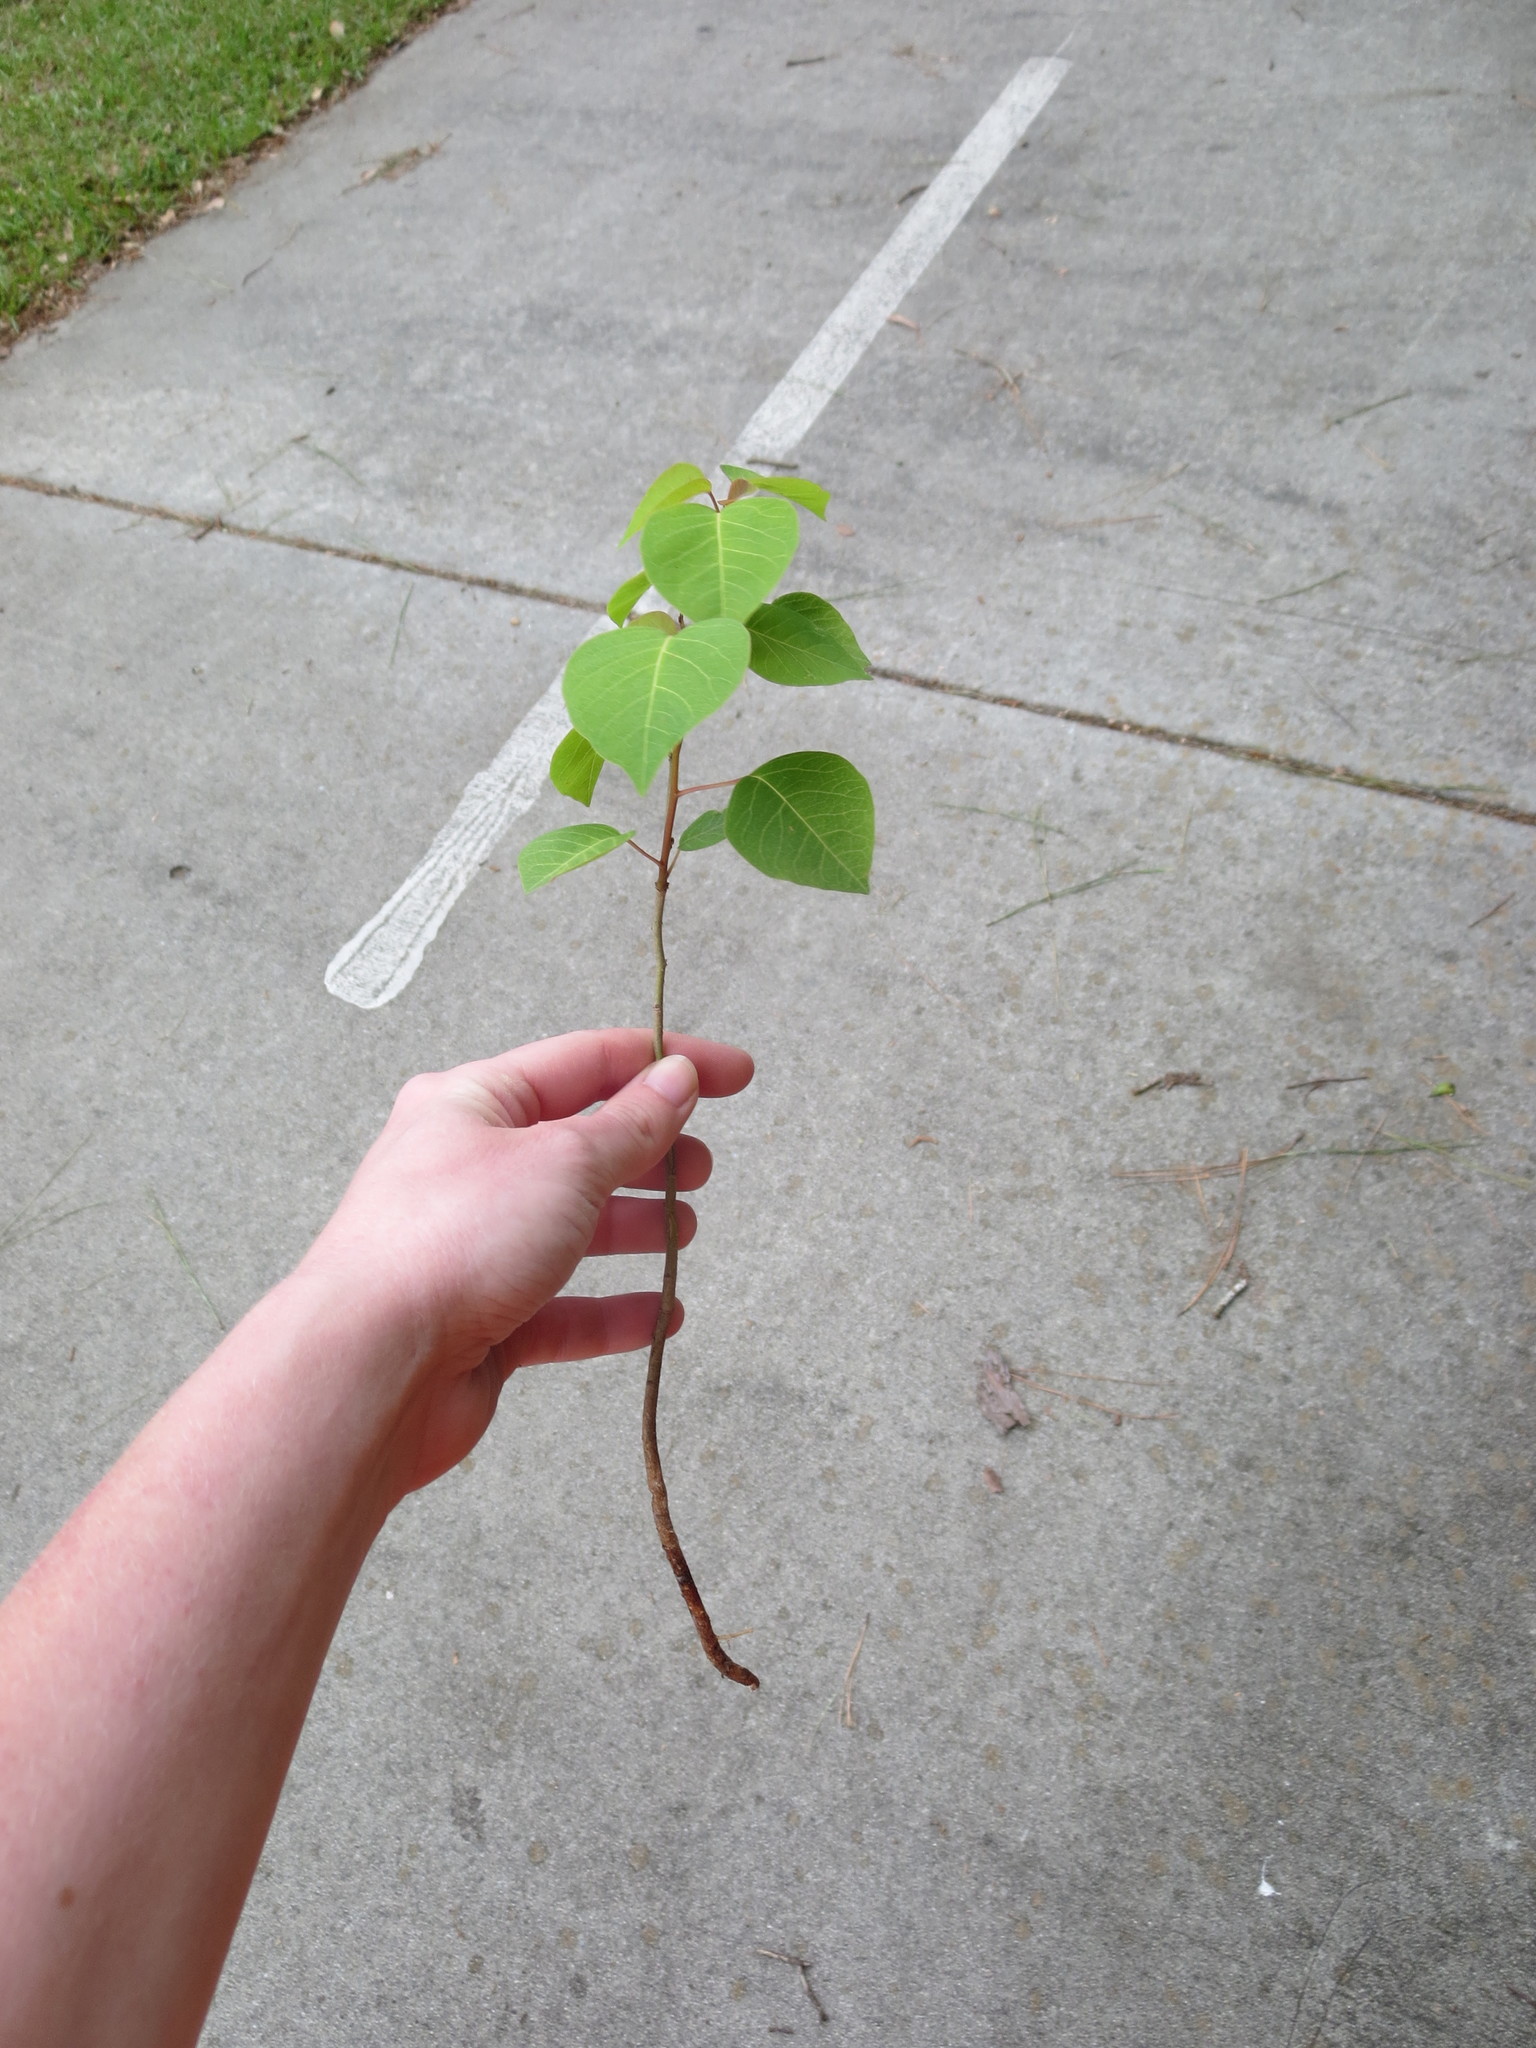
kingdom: Plantae
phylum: Tracheophyta
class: Magnoliopsida
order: Malpighiales
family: Euphorbiaceae
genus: Triadica
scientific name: Triadica sebifera
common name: Chinese tallow
